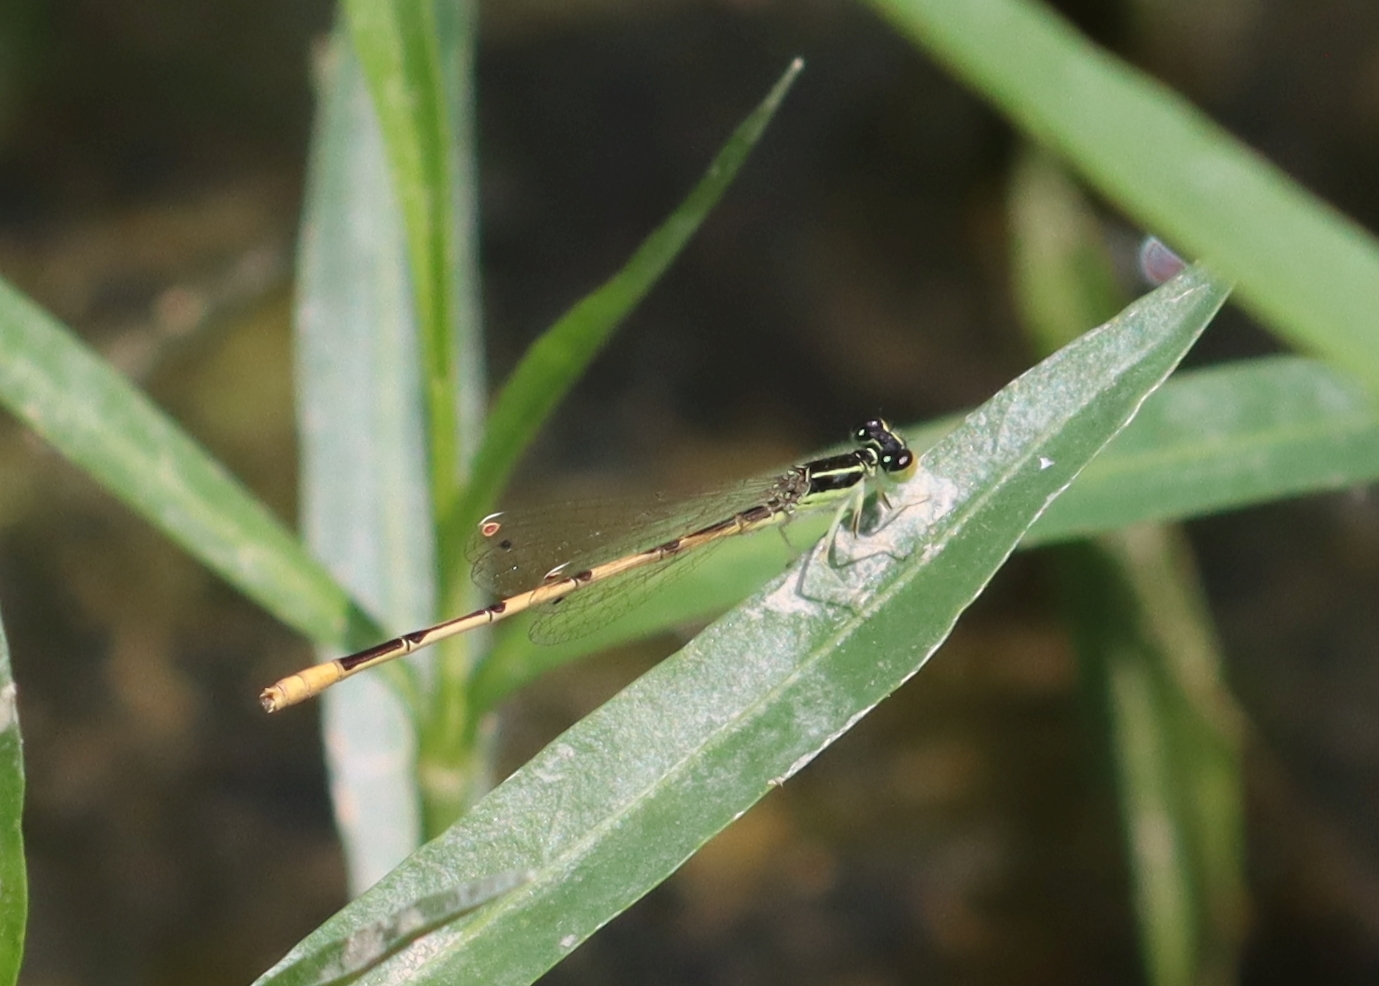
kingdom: Animalia
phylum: Arthropoda
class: Insecta
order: Odonata
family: Coenagrionidae
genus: Ischnura
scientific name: Ischnura hastata
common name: Citrine forktail
